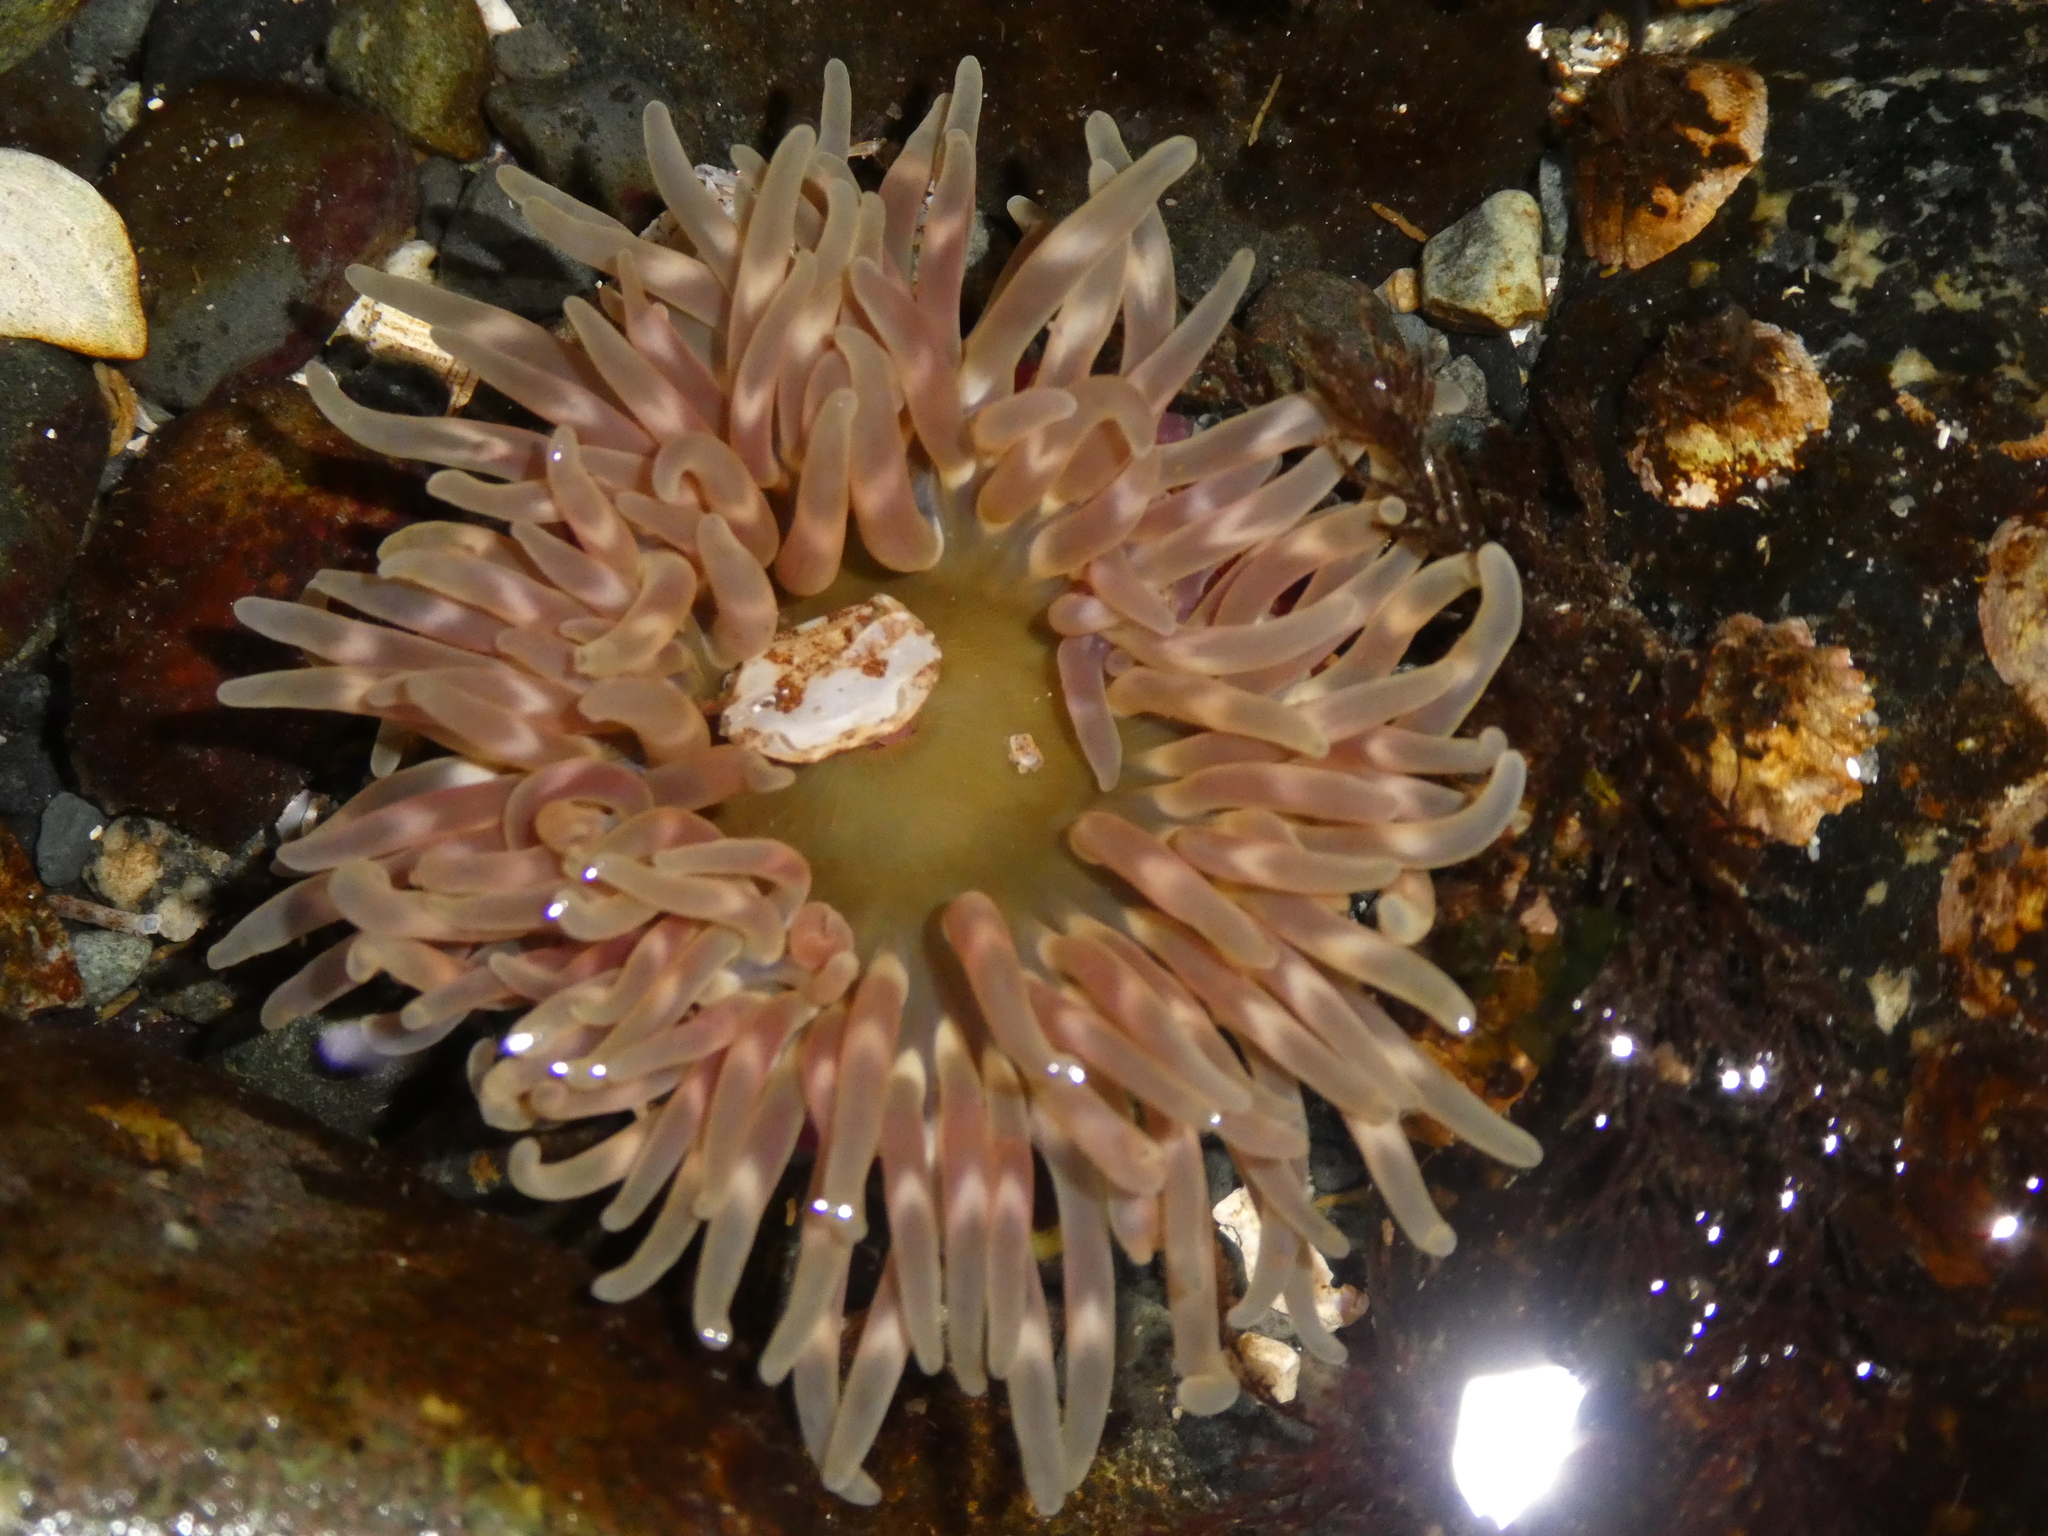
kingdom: Animalia
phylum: Cnidaria
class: Anthozoa
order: Actiniaria
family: Actiniidae
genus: Urticina
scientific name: Urticina clandestina
